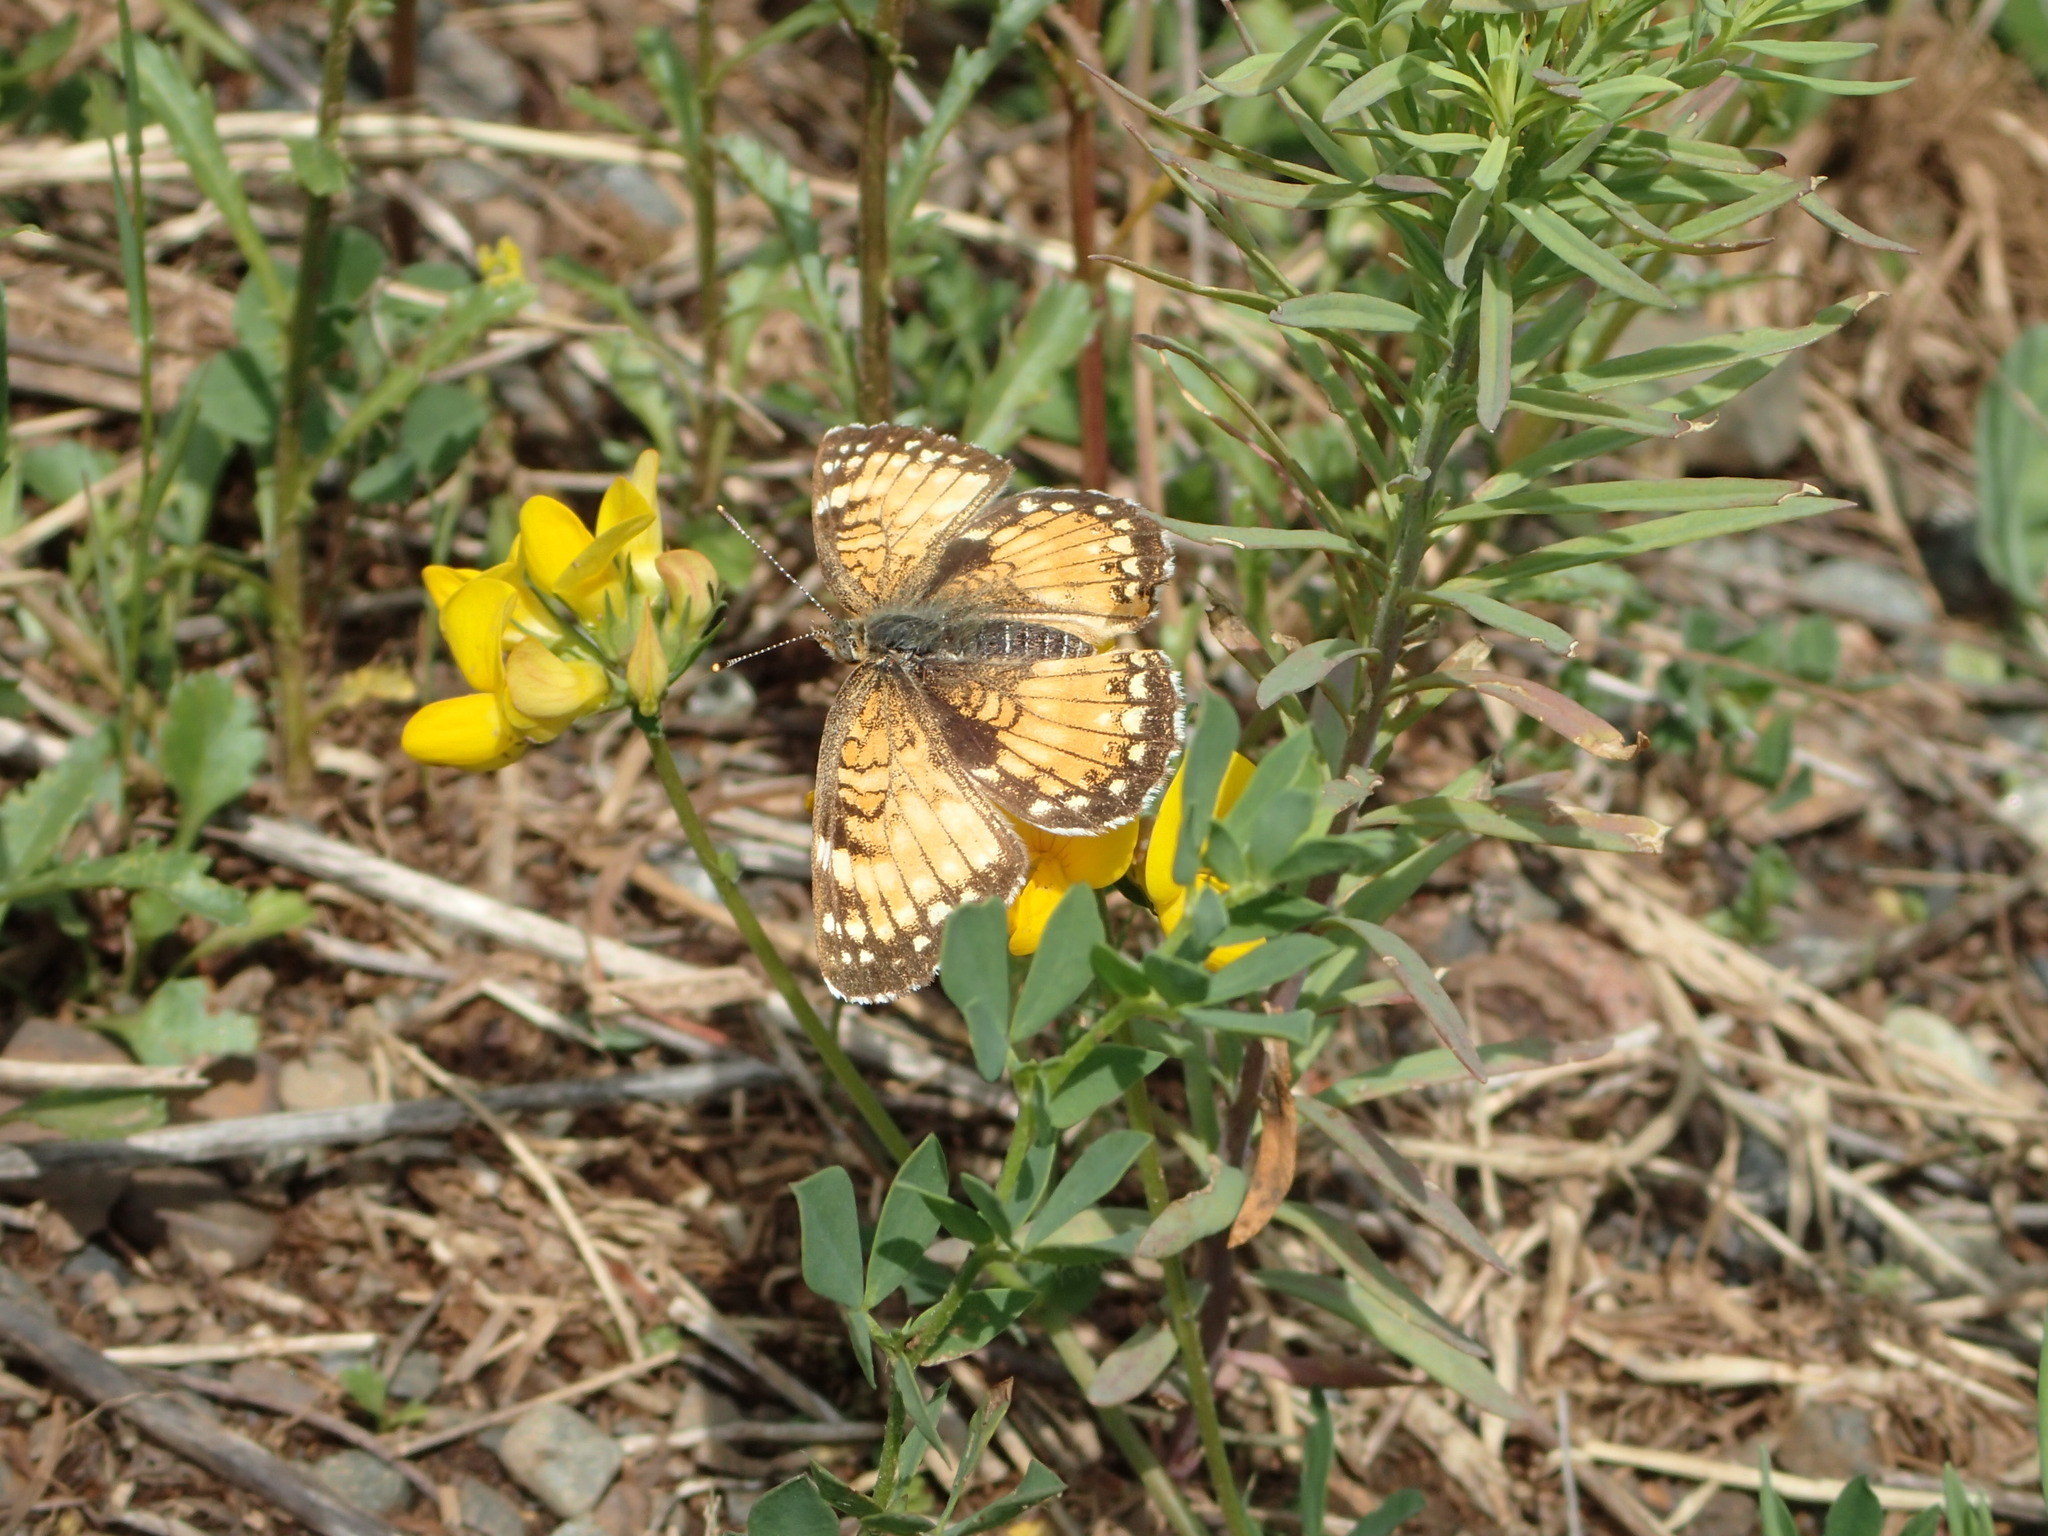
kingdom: Animalia
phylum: Arthropoda
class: Insecta
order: Lepidoptera
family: Nymphalidae
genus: Chlosyne
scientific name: Chlosyne harrisii
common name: Harris's checkerspot
